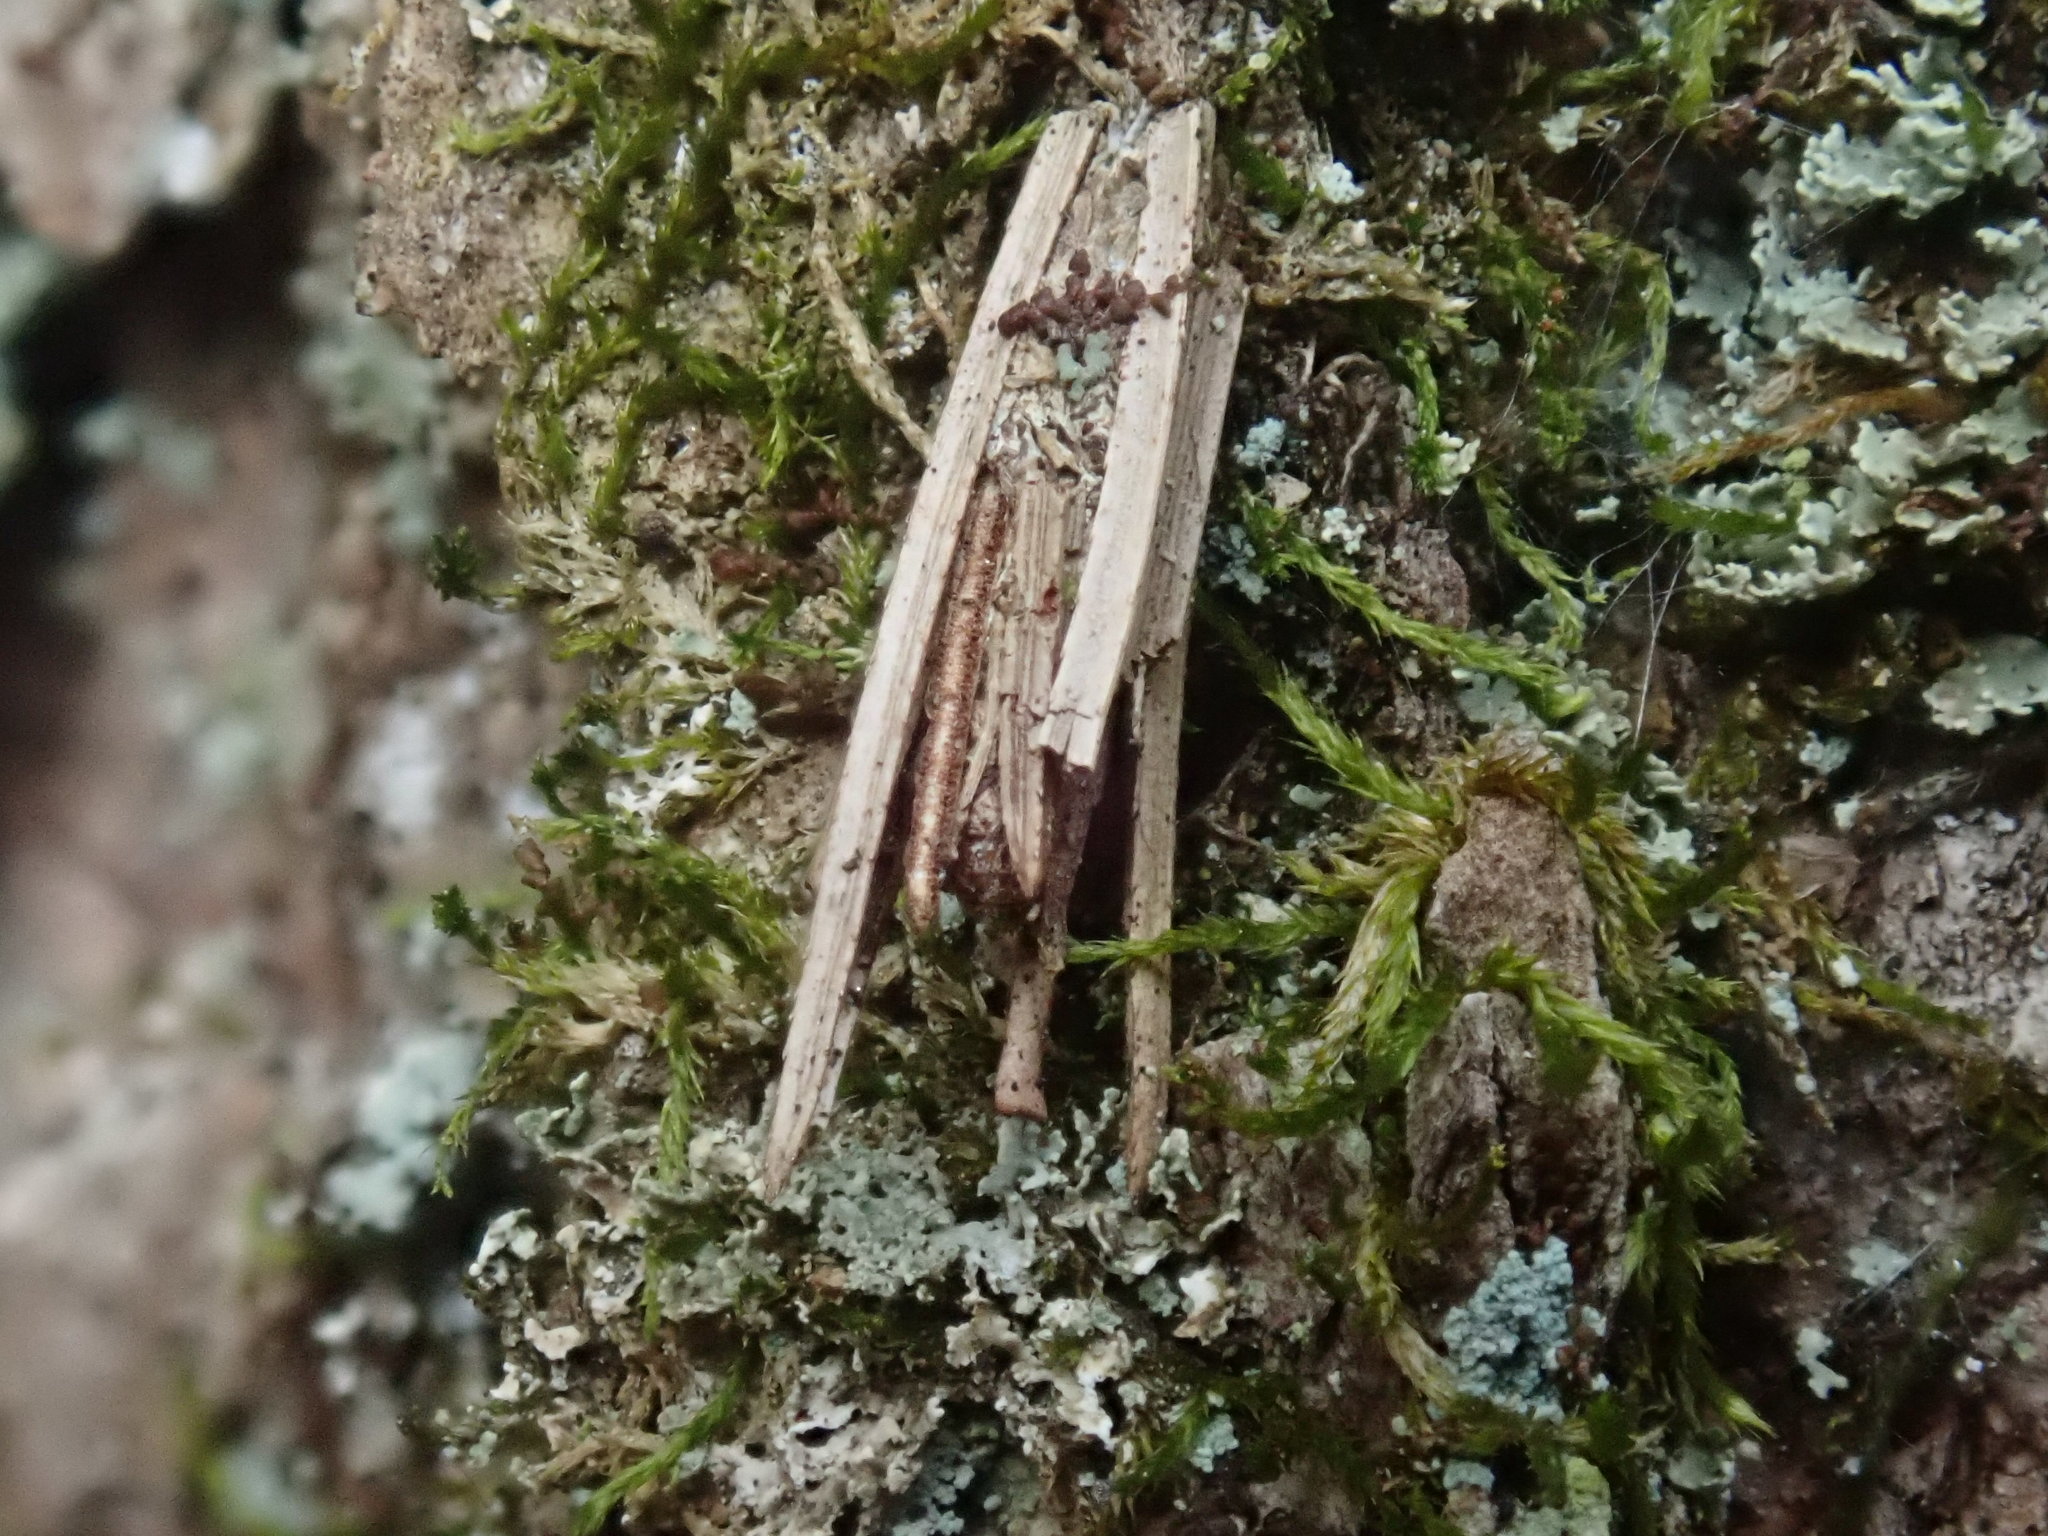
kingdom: Animalia
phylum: Arthropoda
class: Insecta
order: Lepidoptera
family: Psychidae
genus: Psyche
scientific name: Psyche casta
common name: Common sweep
